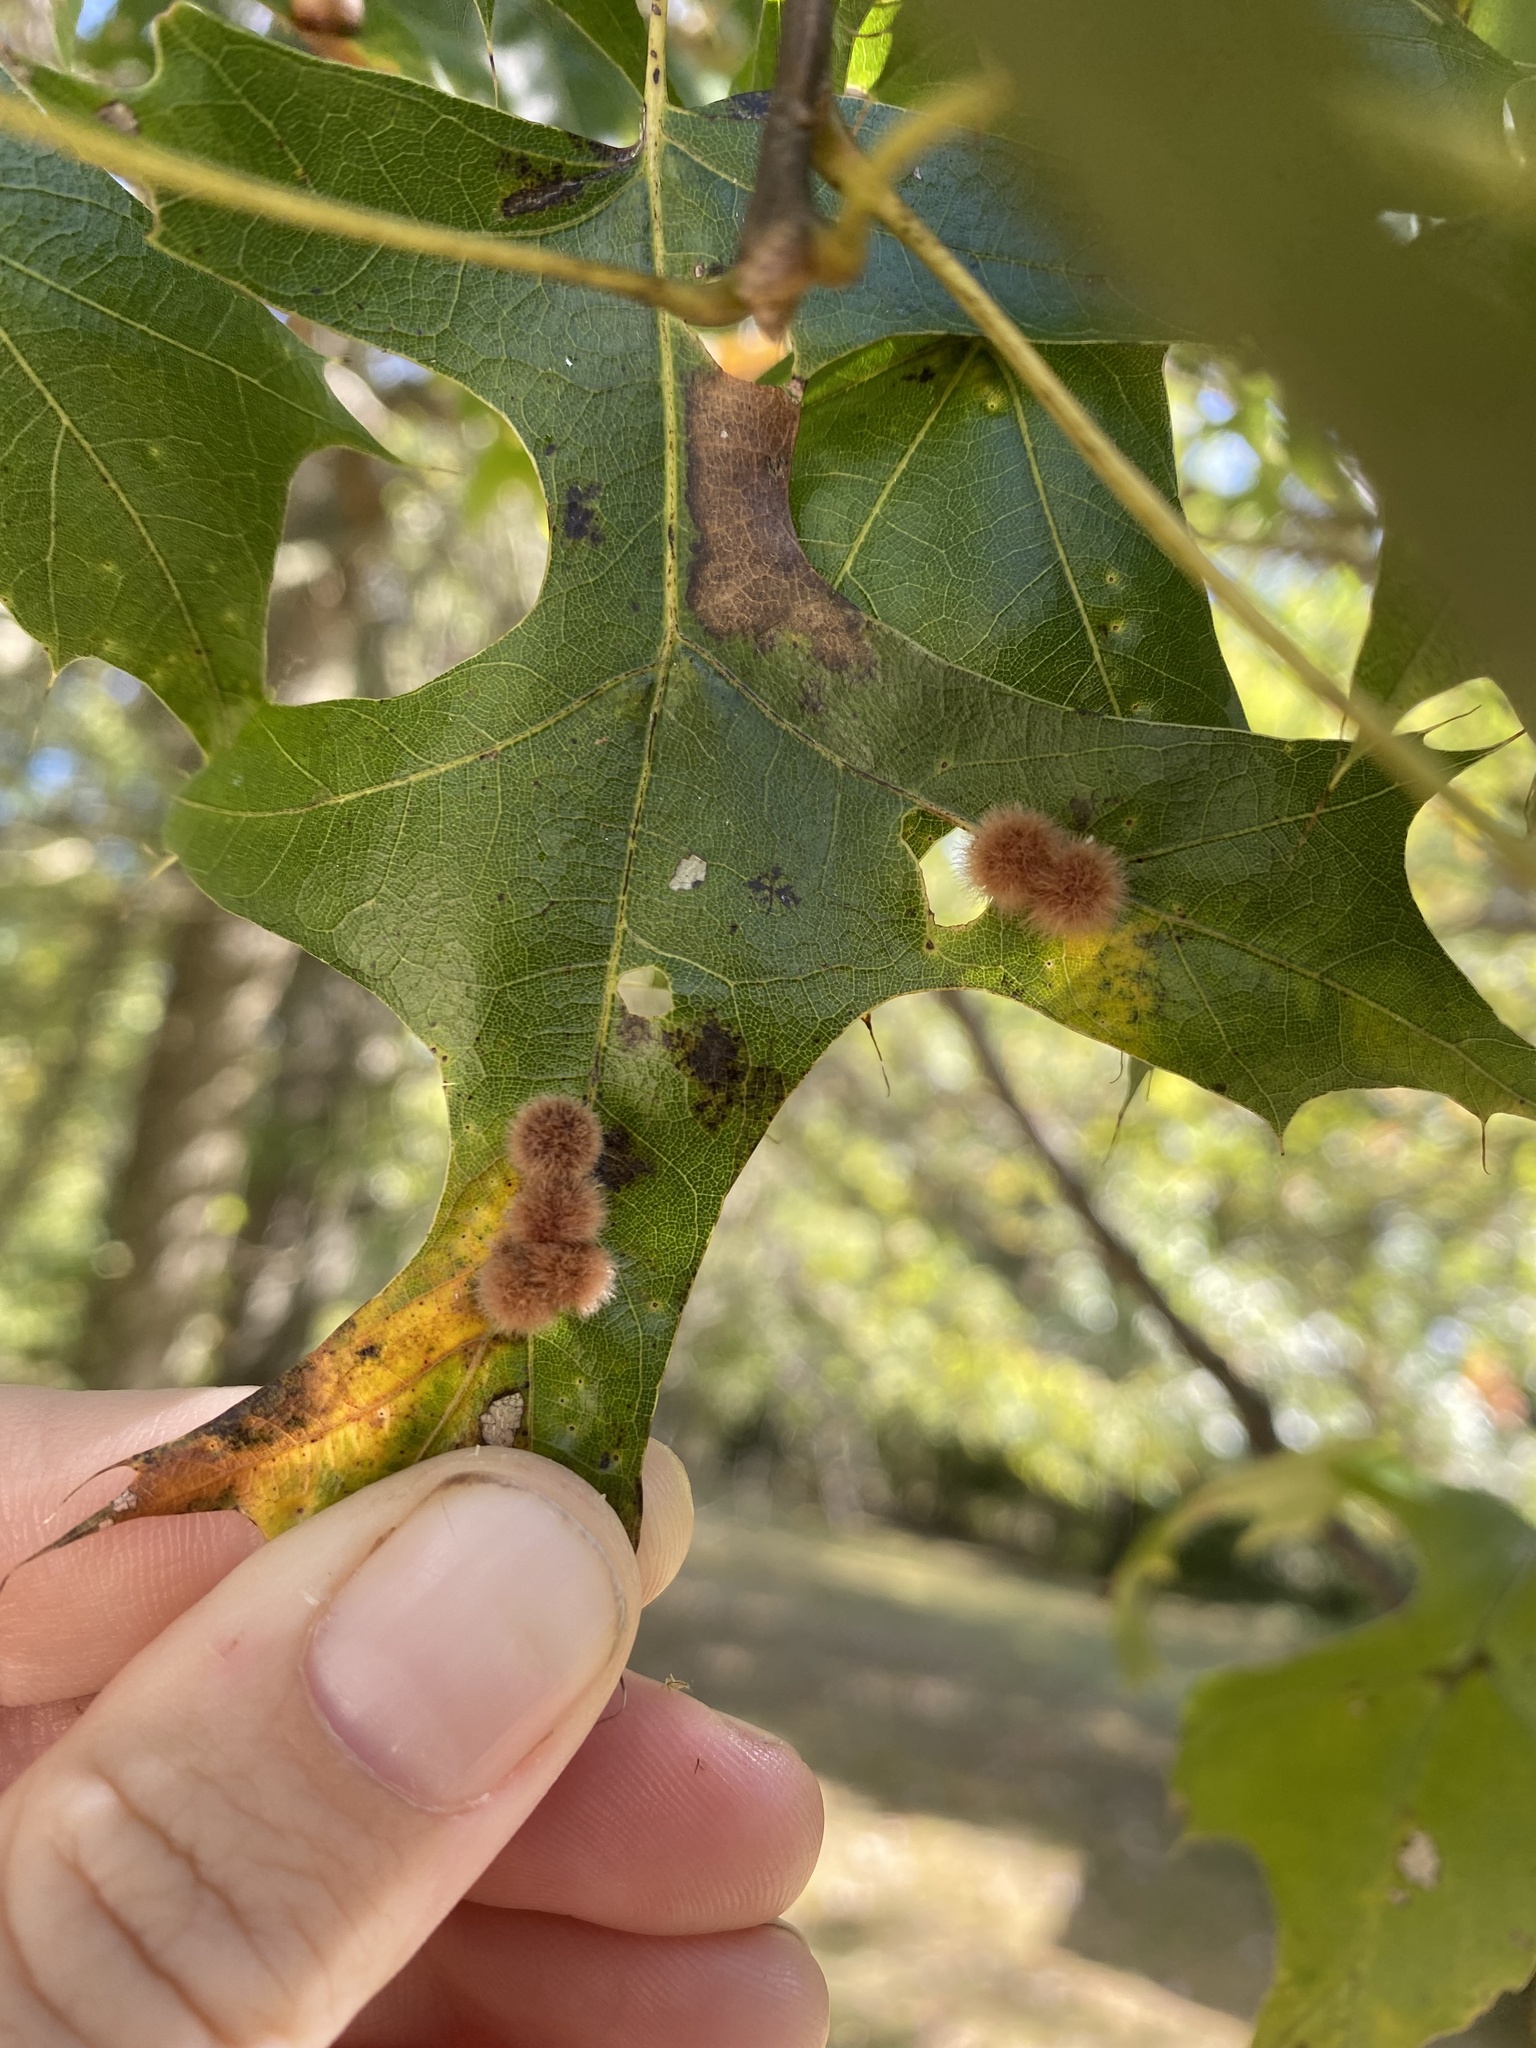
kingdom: Animalia
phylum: Arthropoda
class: Insecta
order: Hymenoptera
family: Cynipidae
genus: Callirhytis
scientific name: Callirhytis
